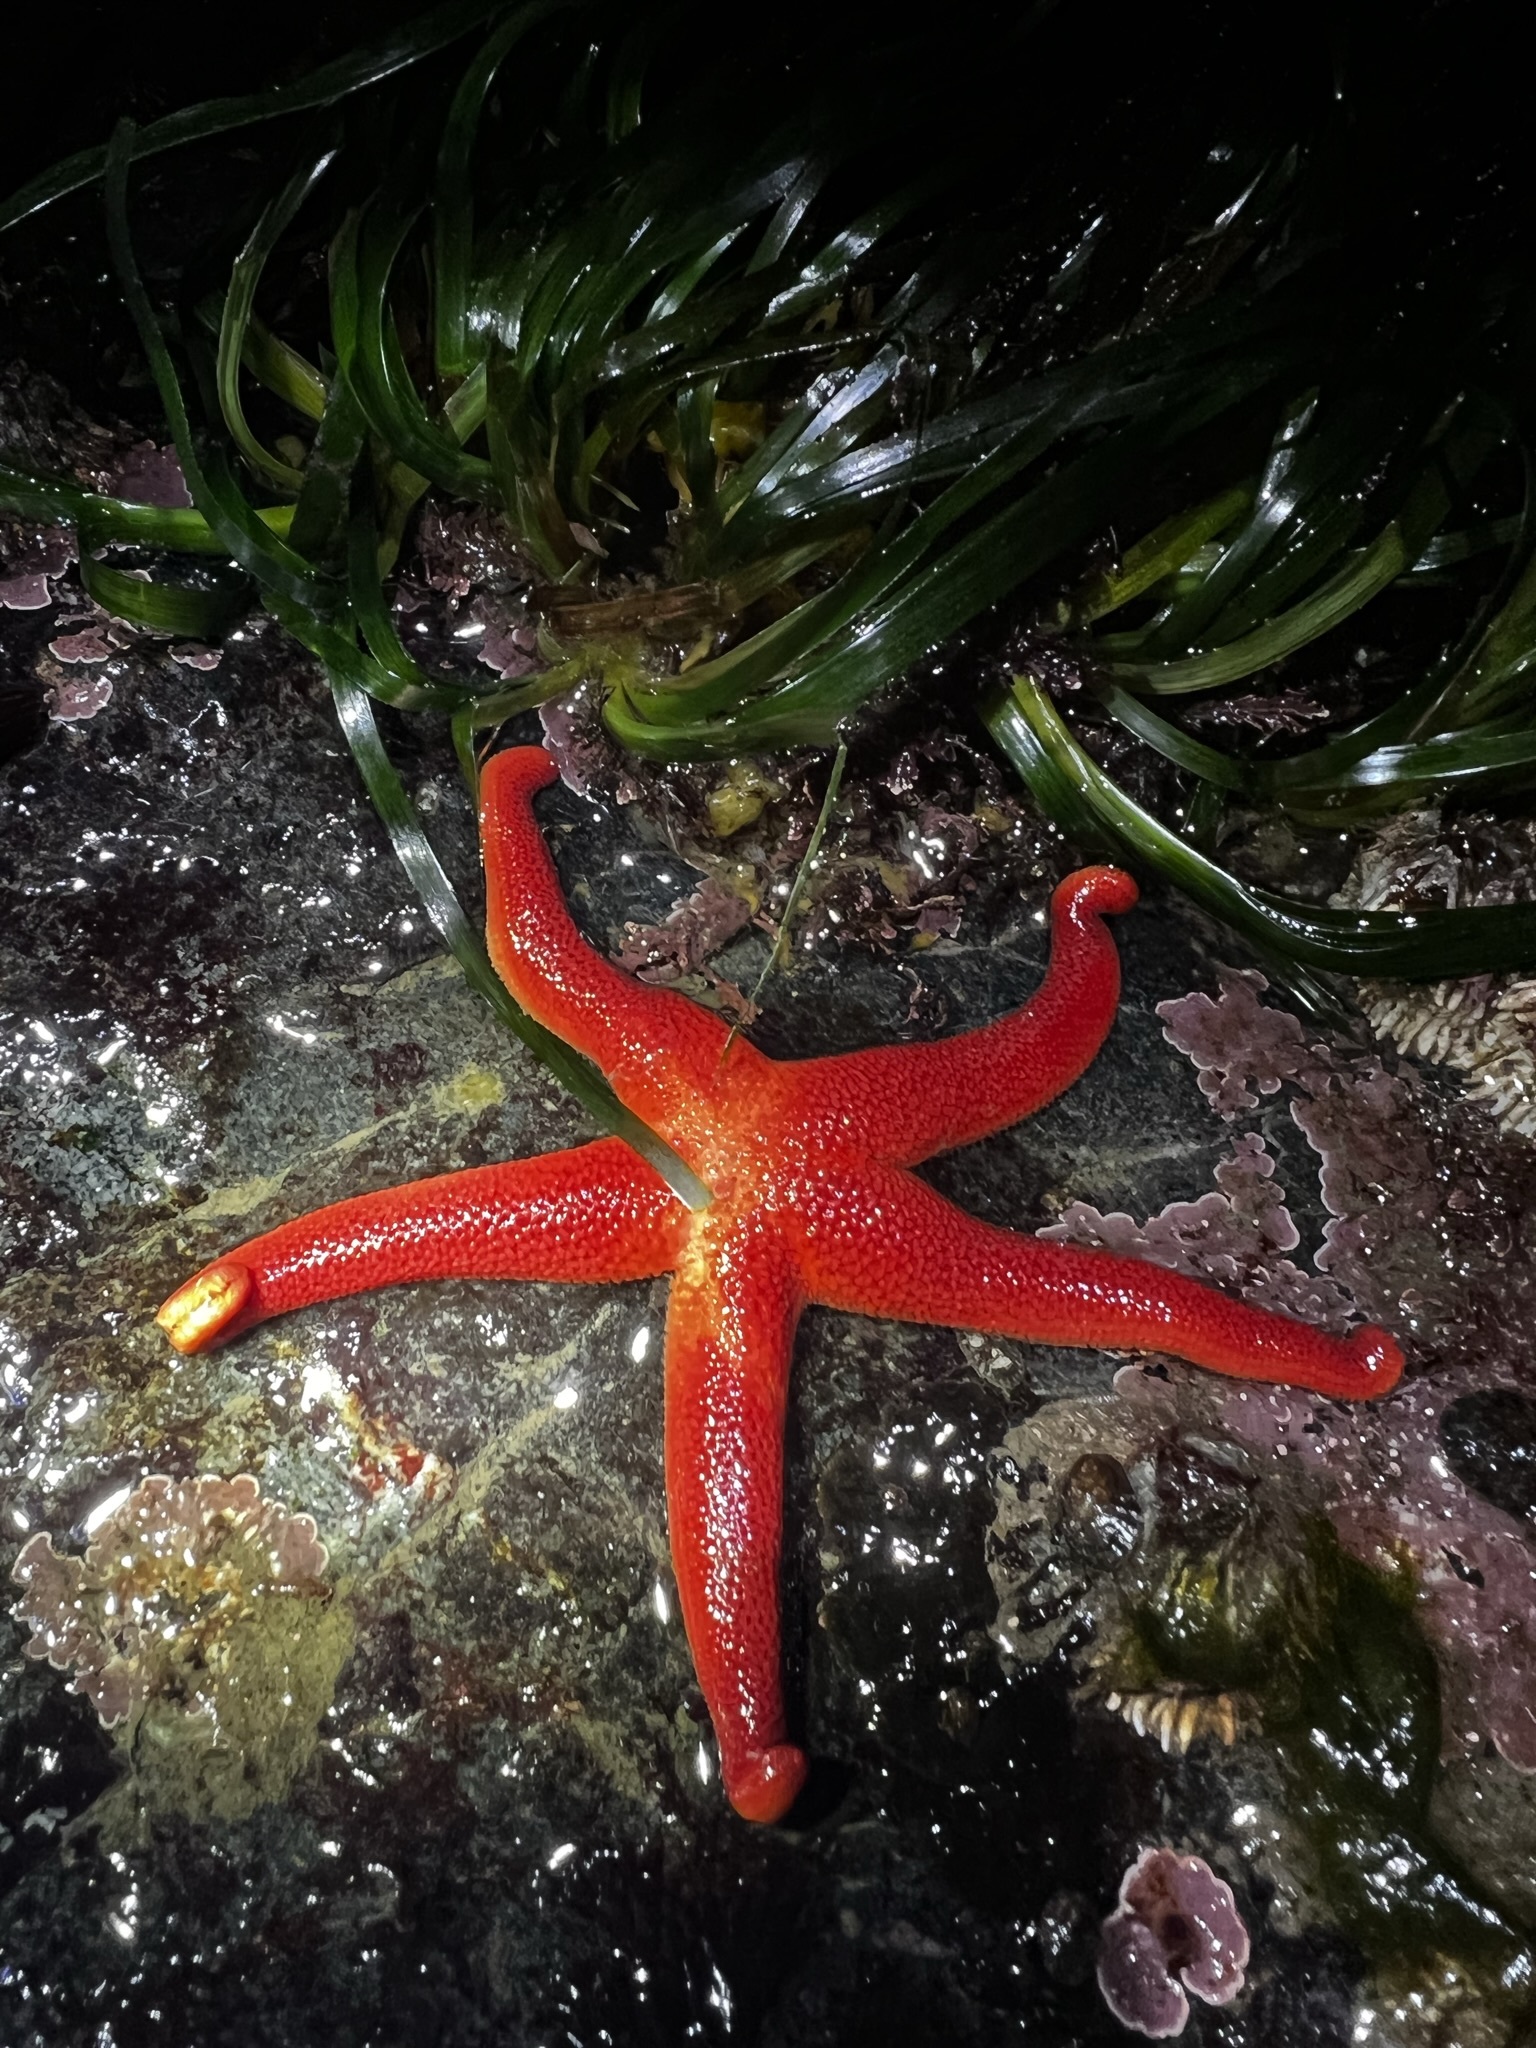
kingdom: Animalia
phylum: Echinodermata
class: Asteroidea
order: Spinulosida
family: Echinasteridae
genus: Henricia
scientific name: Henricia
